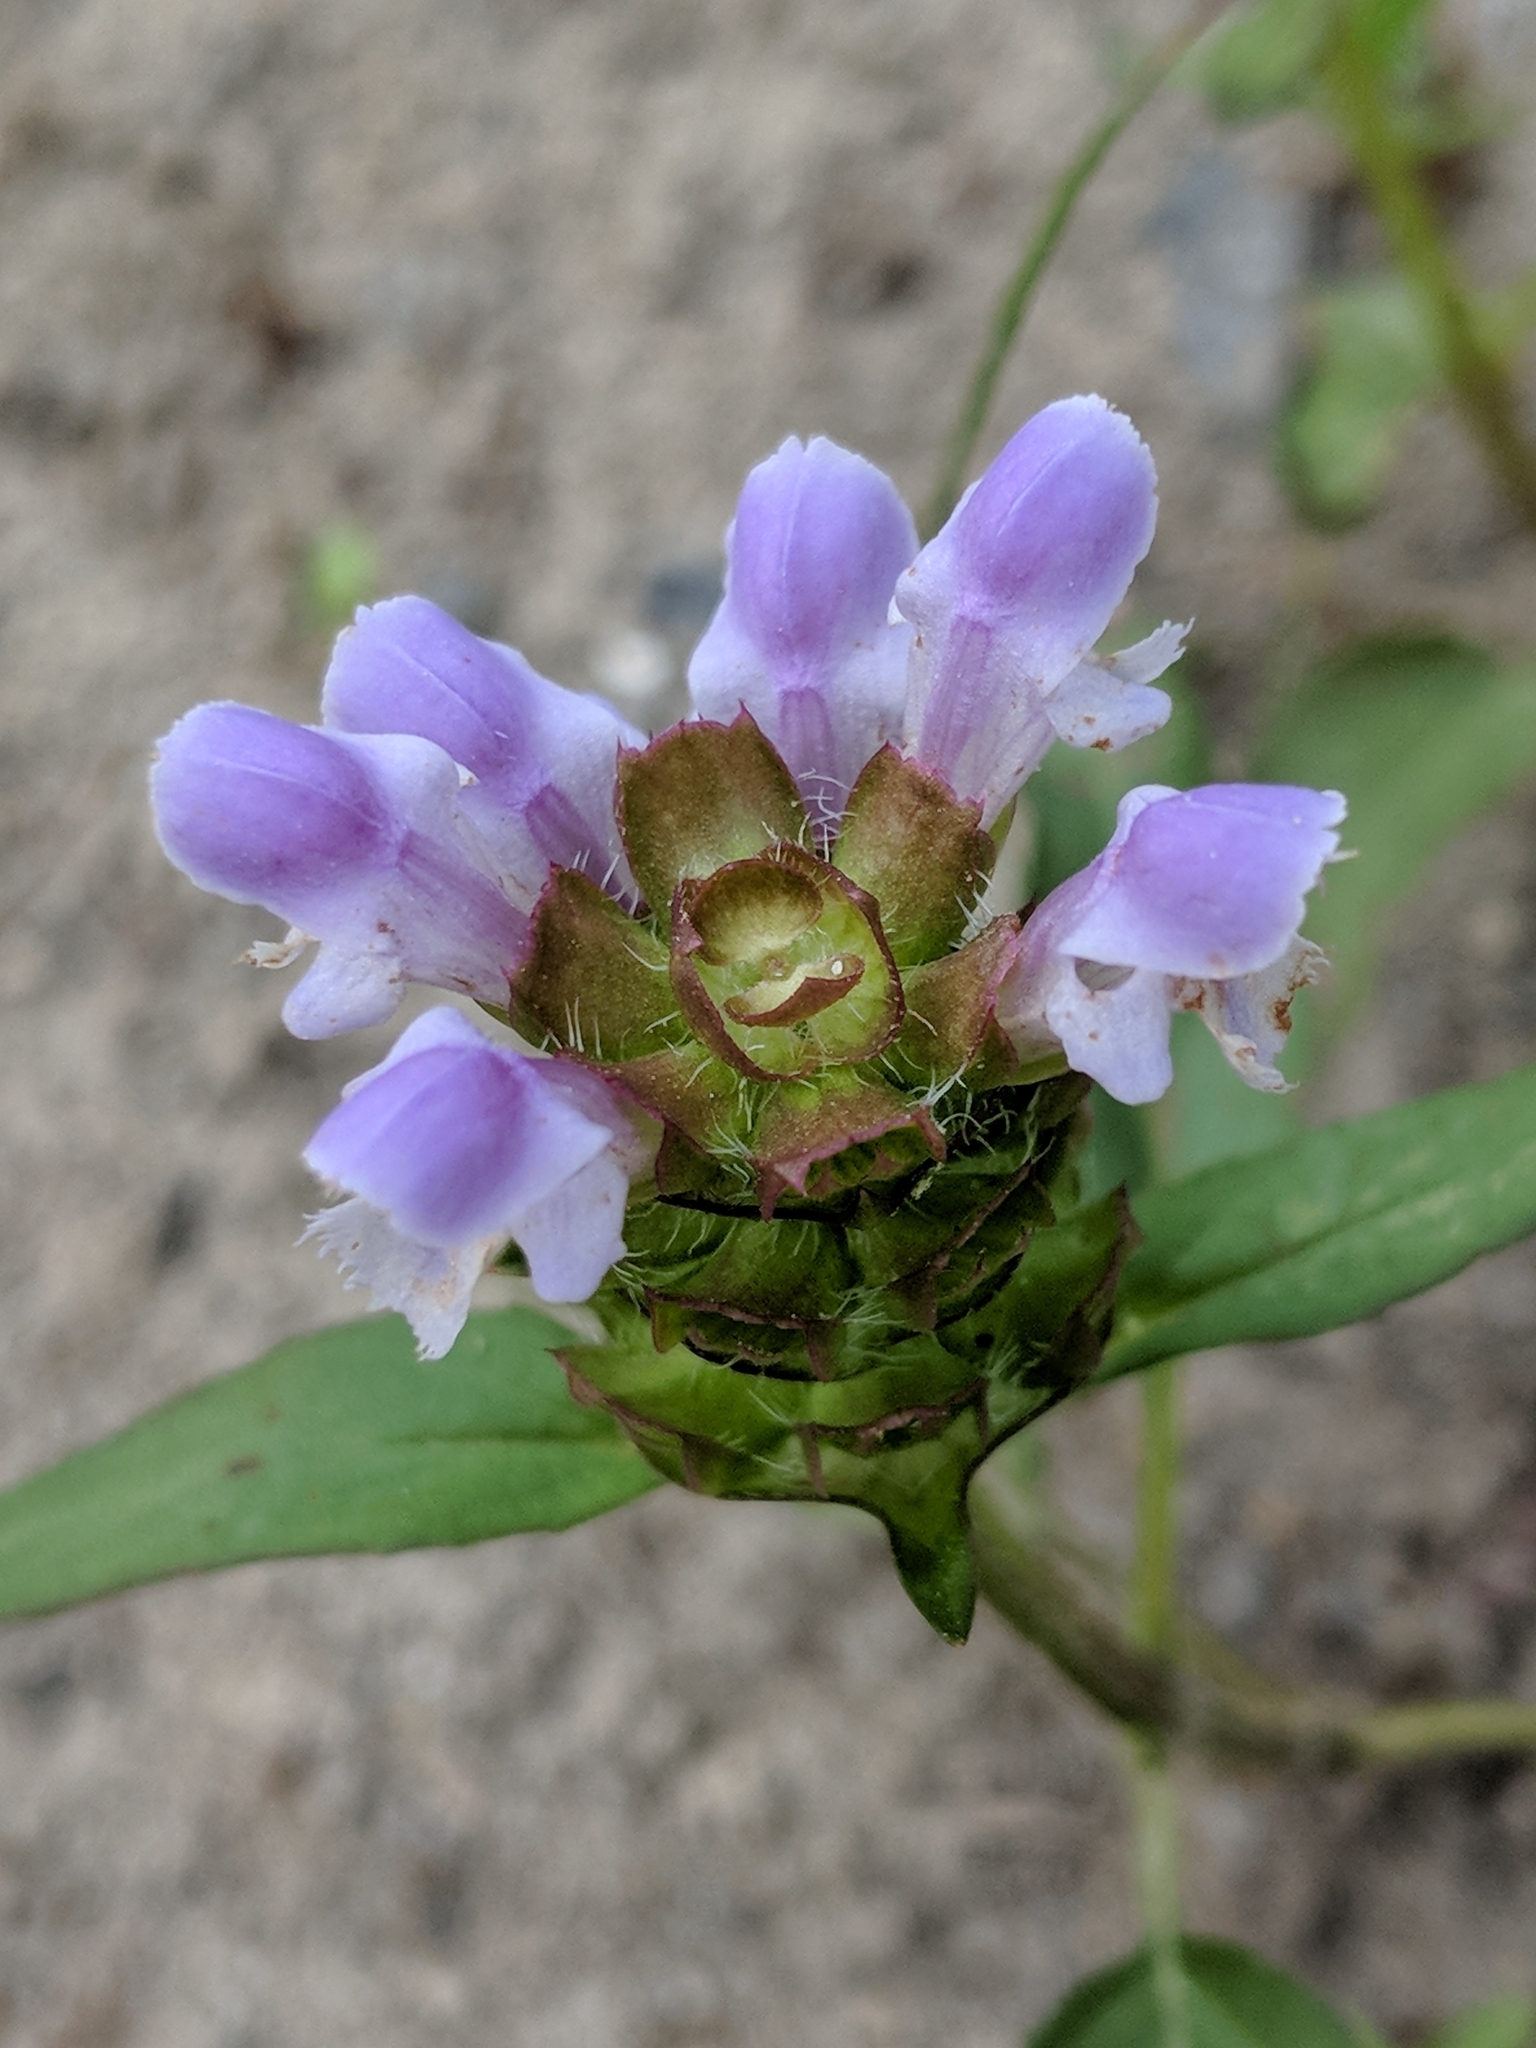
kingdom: Plantae
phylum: Tracheophyta
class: Magnoliopsida
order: Lamiales
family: Lamiaceae
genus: Prunella
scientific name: Prunella vulgaris
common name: Heal-all
